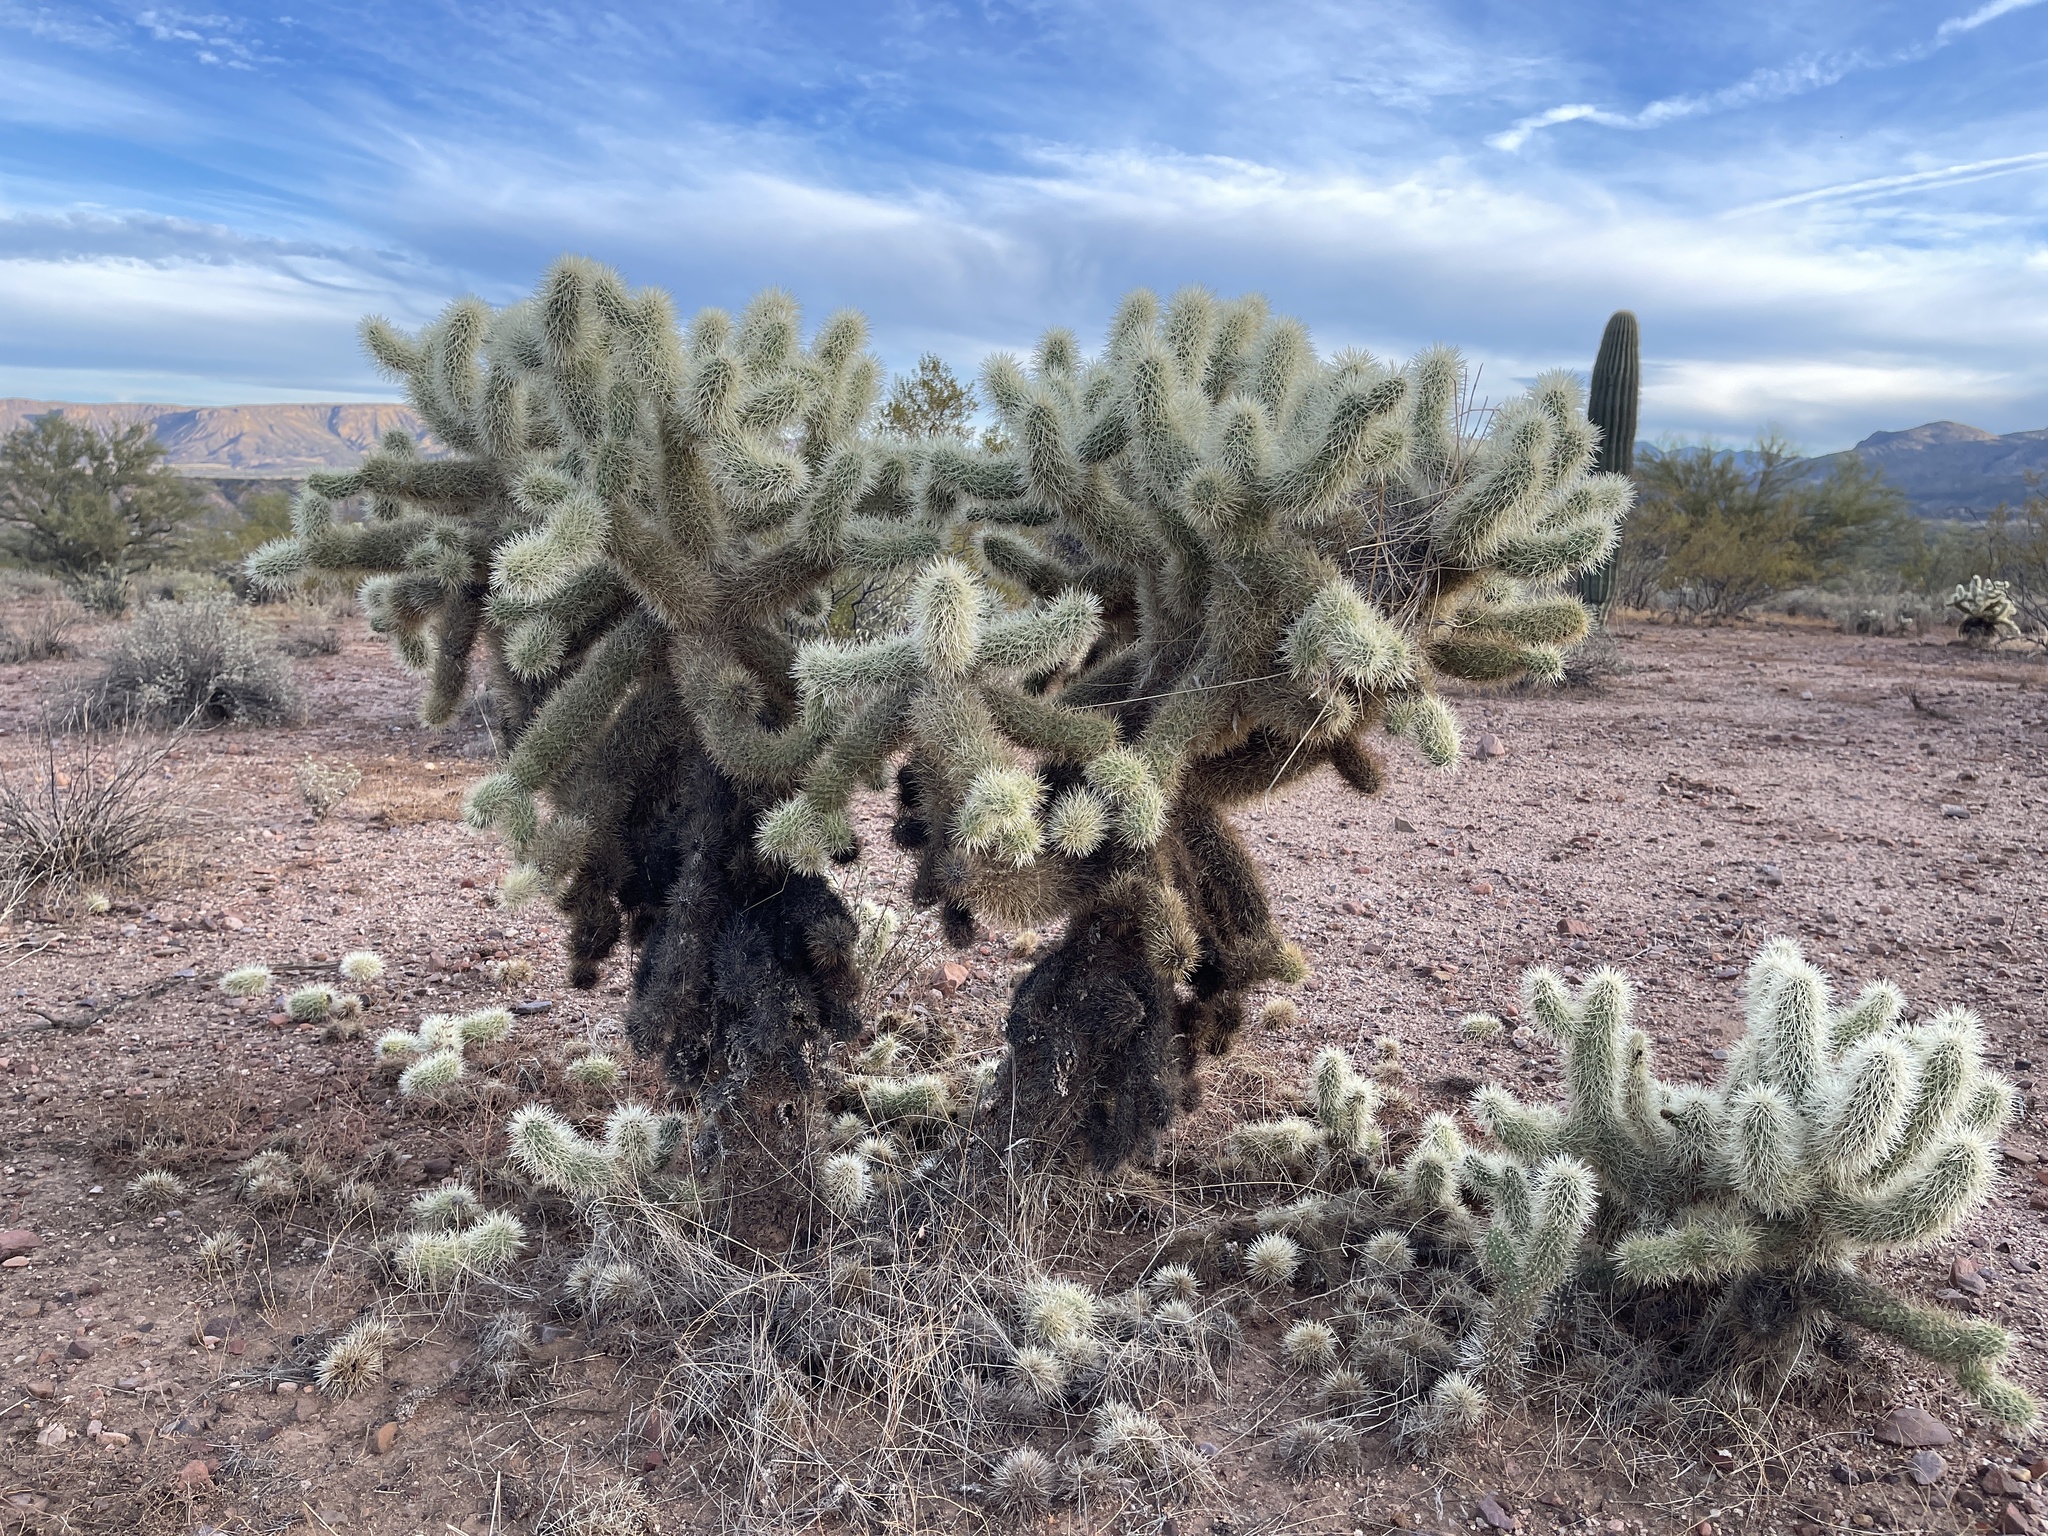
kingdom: Plantae
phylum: Tracheophyta
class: Magnoliopsida
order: Caryophyllales
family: Cactaceae
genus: Cylindropuntia
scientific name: Cylindropuntia fosbergii
